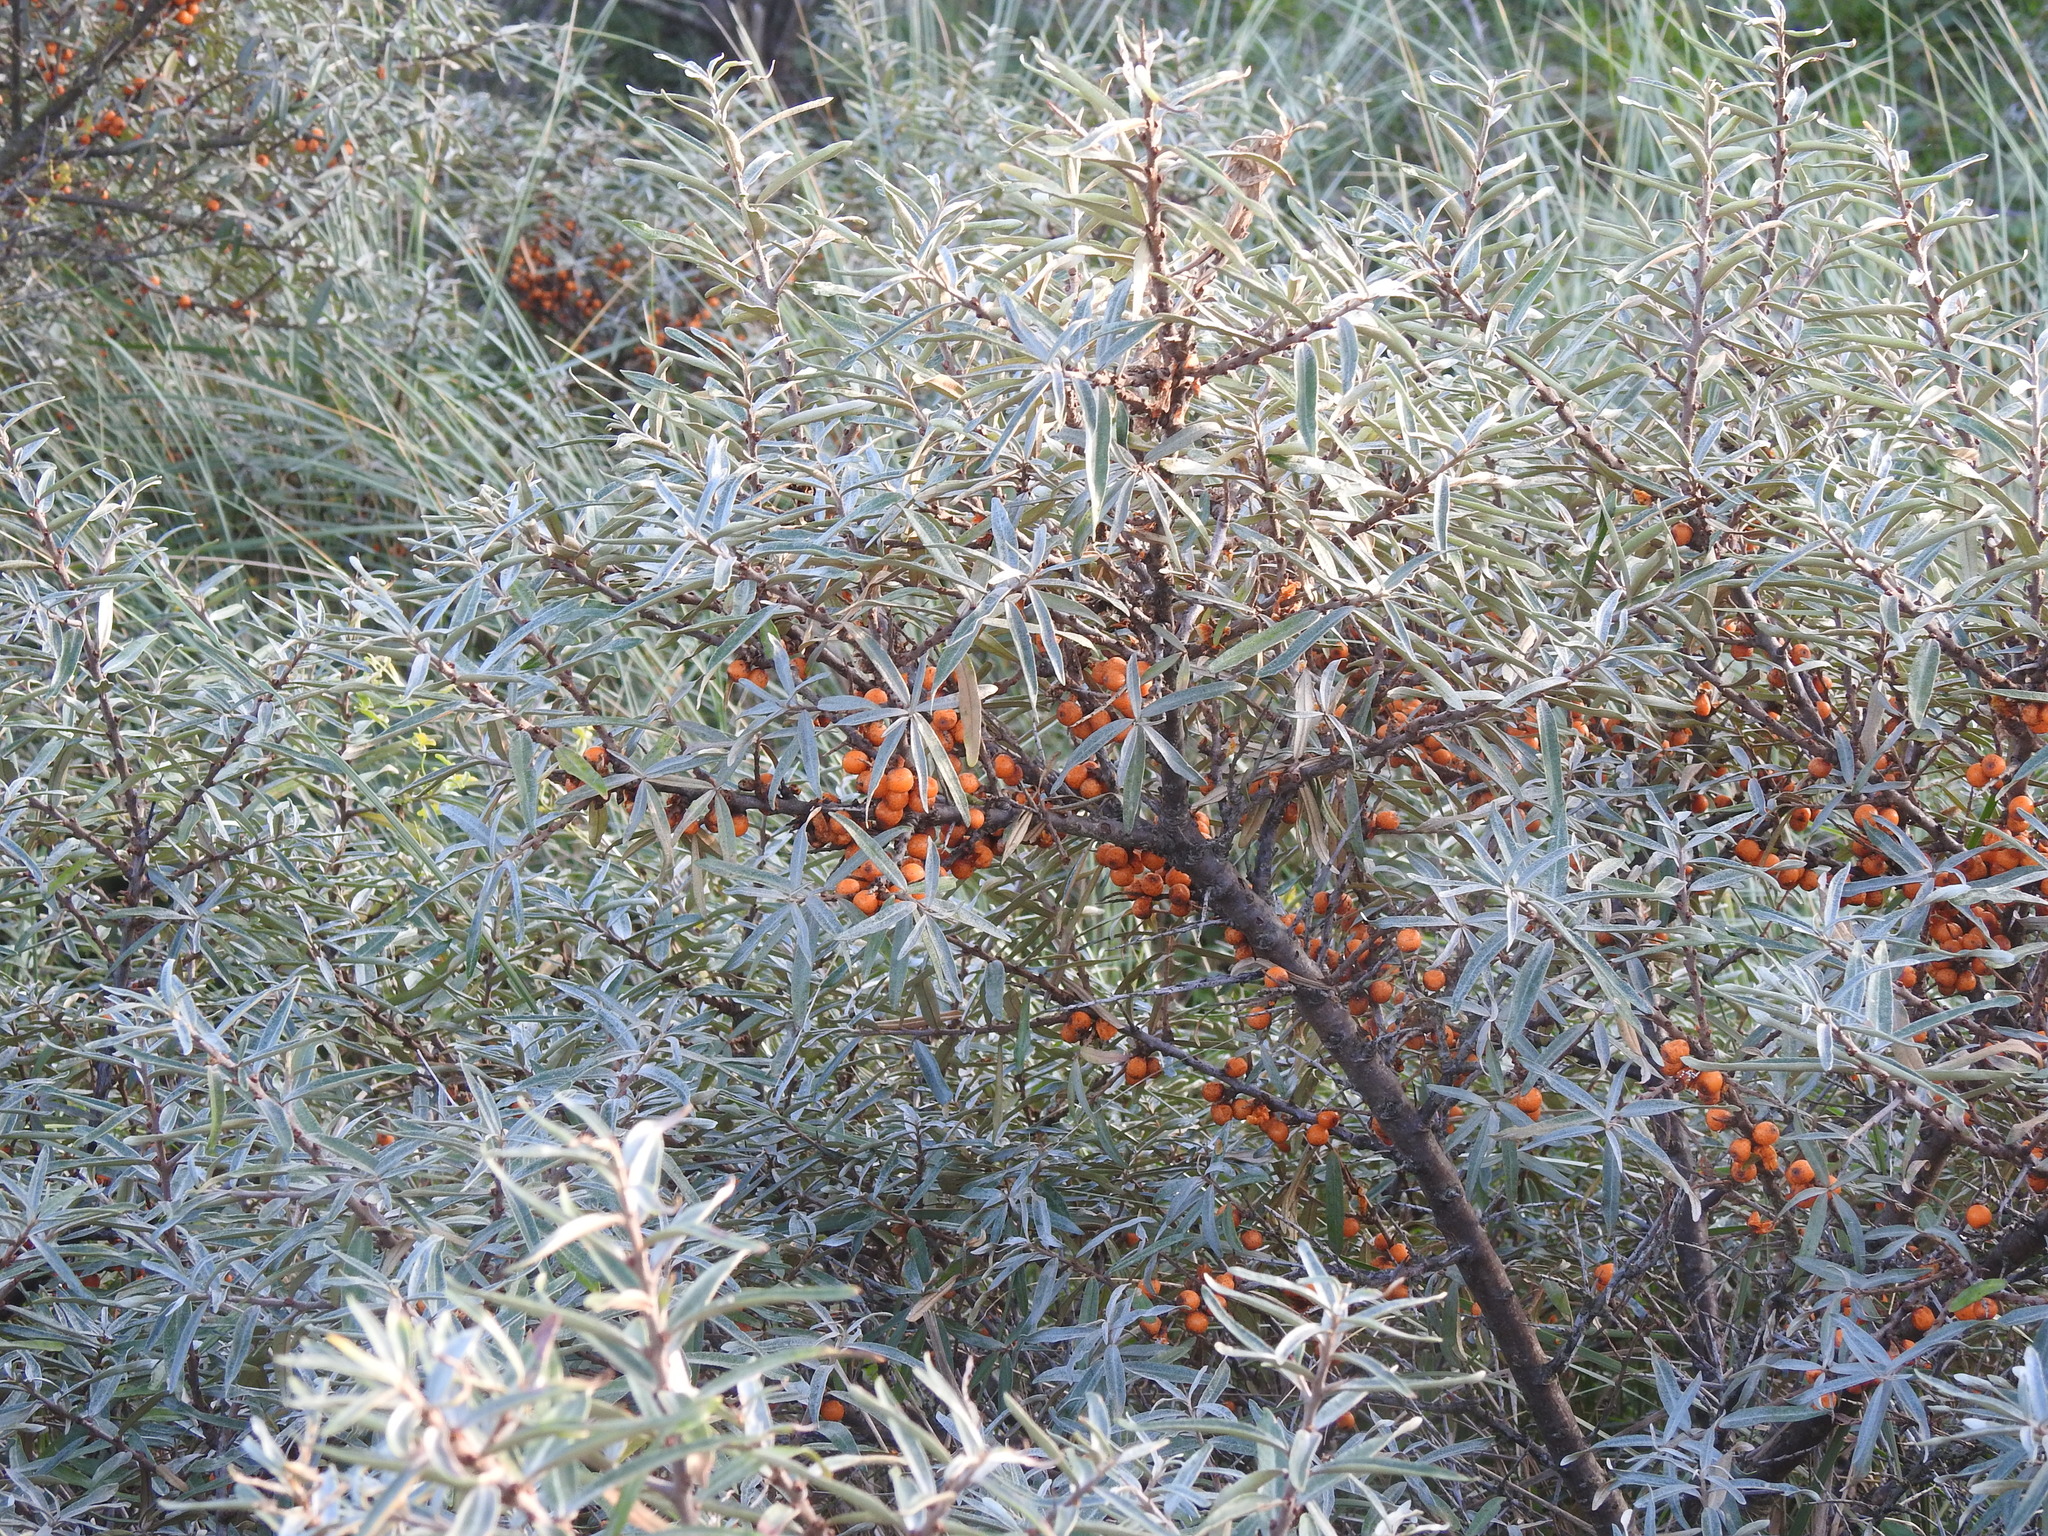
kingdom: Plantae
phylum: Tracheophyta
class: Magnoliopsida
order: Rosales
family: Elaeagnaceae
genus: Hippophae
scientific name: Hippophae rhamnoides
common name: Sea-buckthorn
